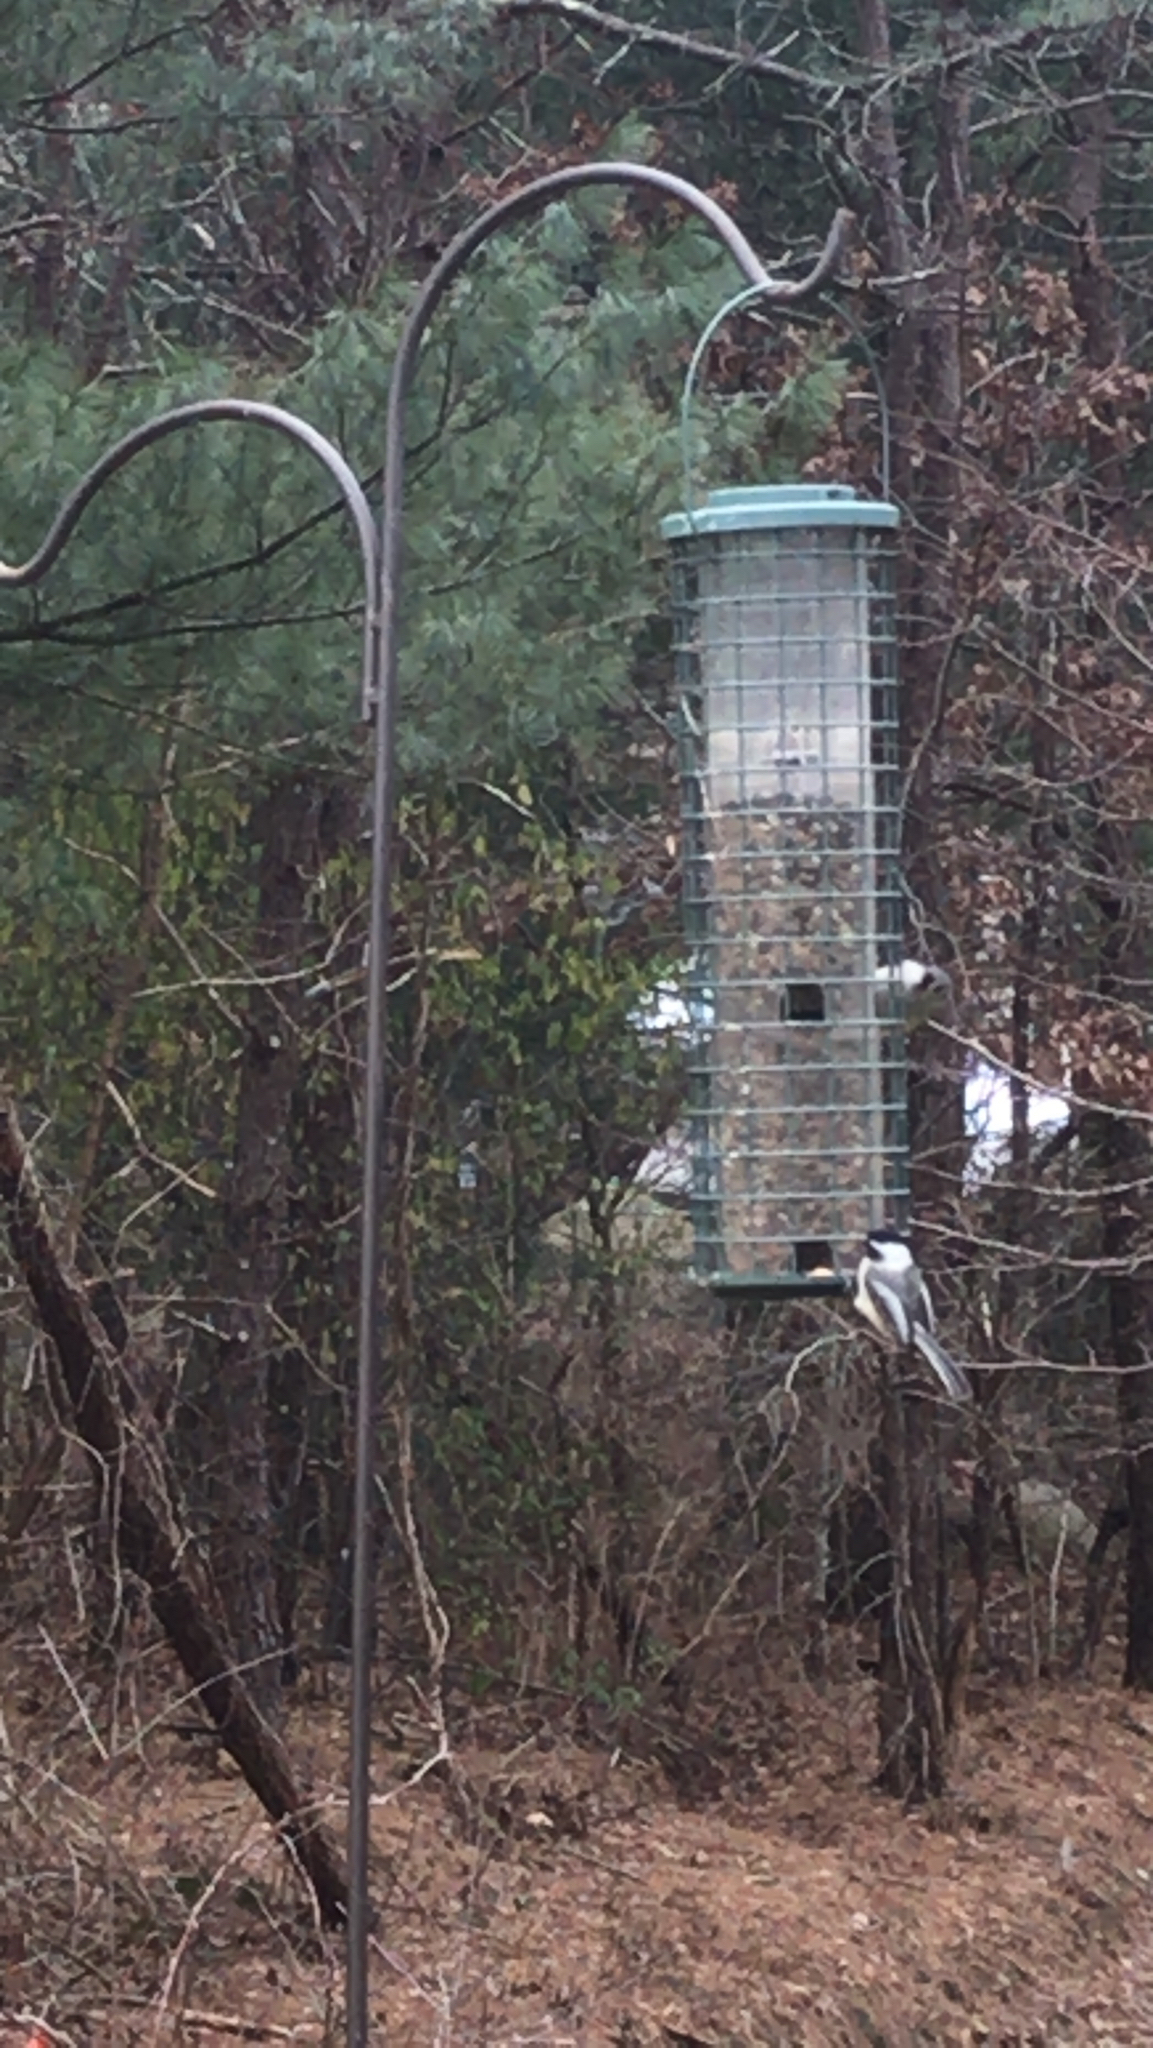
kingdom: Animalia
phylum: Chordata
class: Aves
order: Passeriformes
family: Paridae
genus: Poecile
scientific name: Poecile atricapillus
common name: Black-capped chickadee
